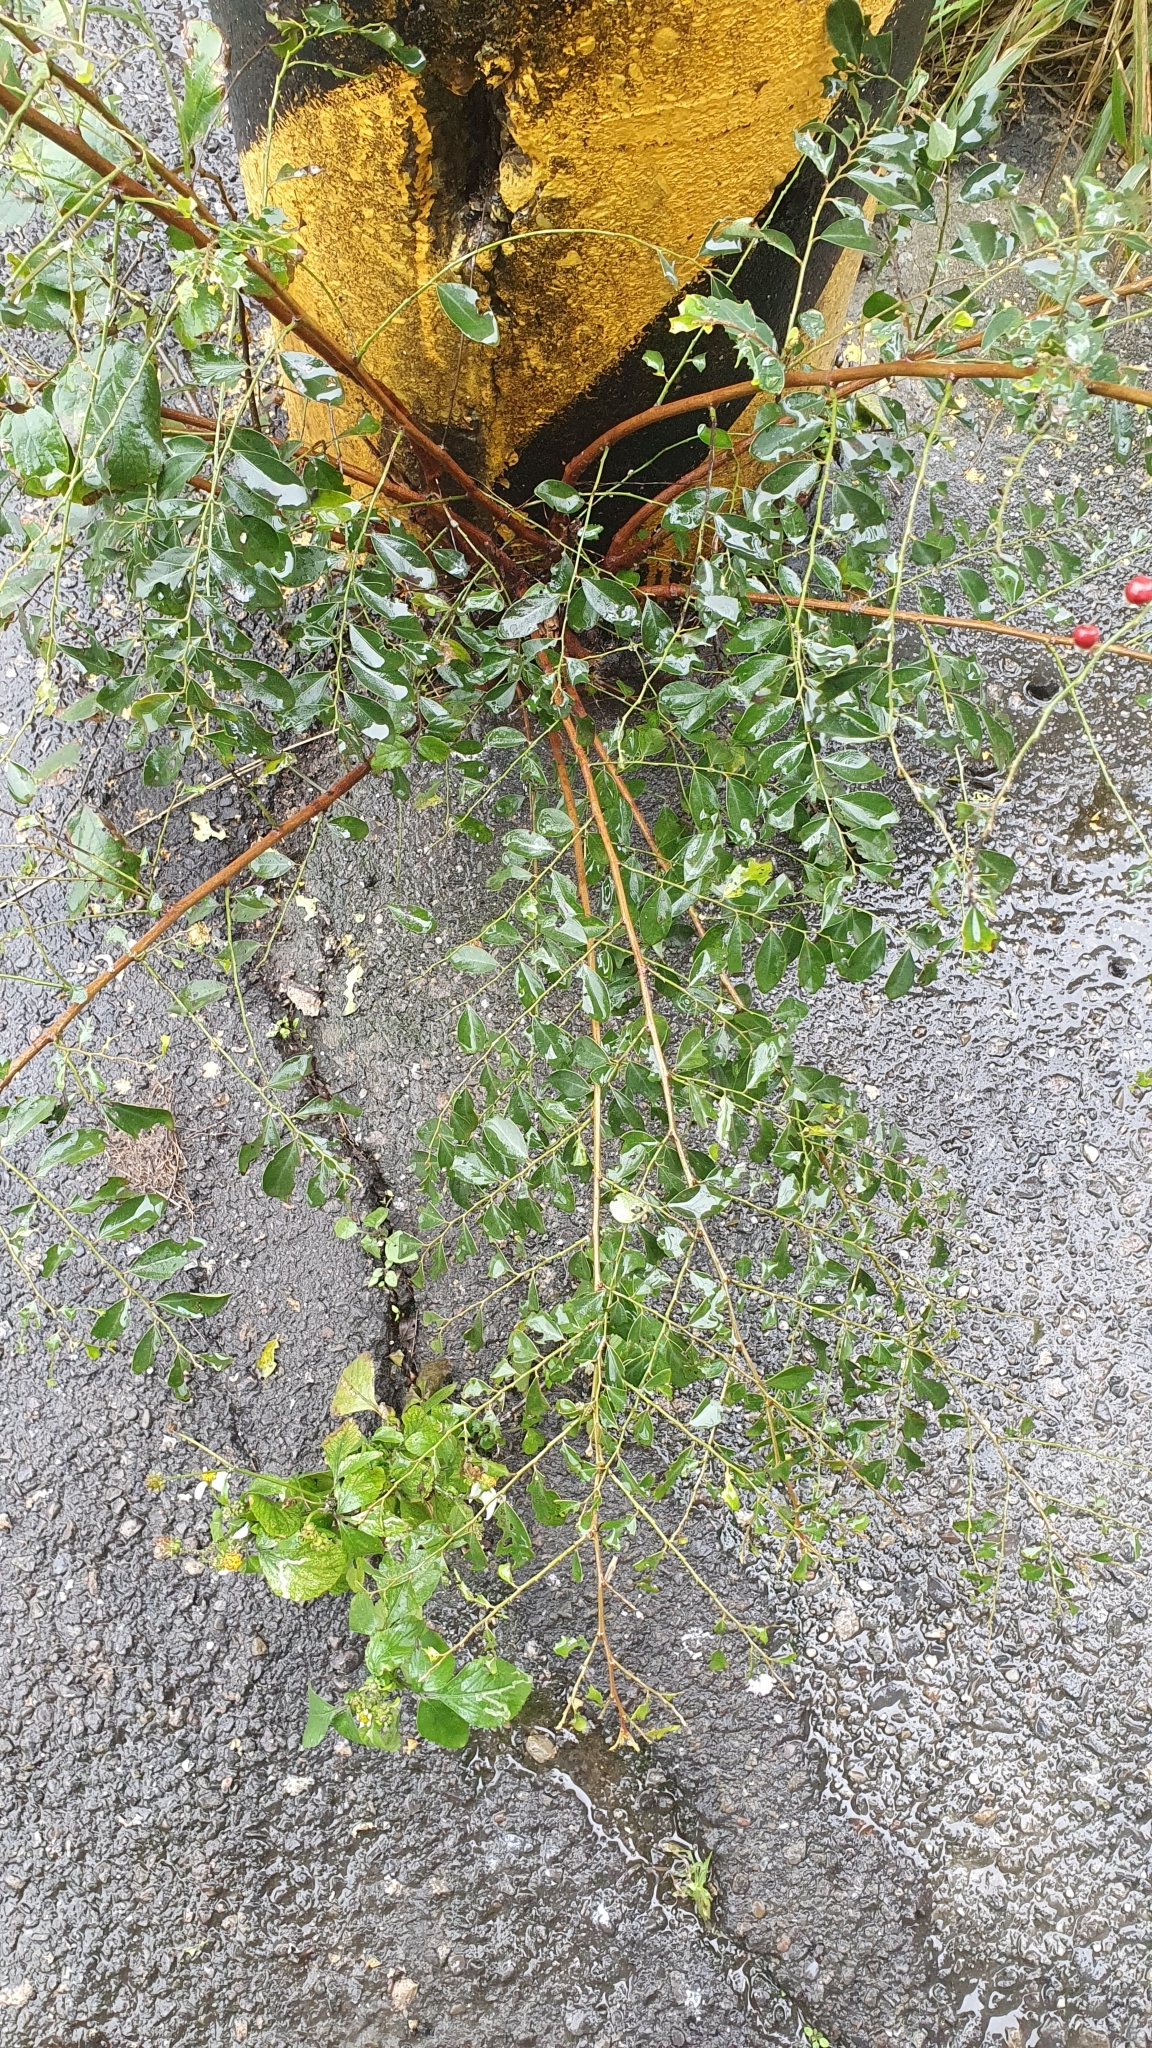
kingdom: Plantae
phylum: Tracheophyta
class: Magnoliopsida
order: Malpighiales
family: Phyllanthaceae
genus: Breynia
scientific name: Breynia vitis-idaea
